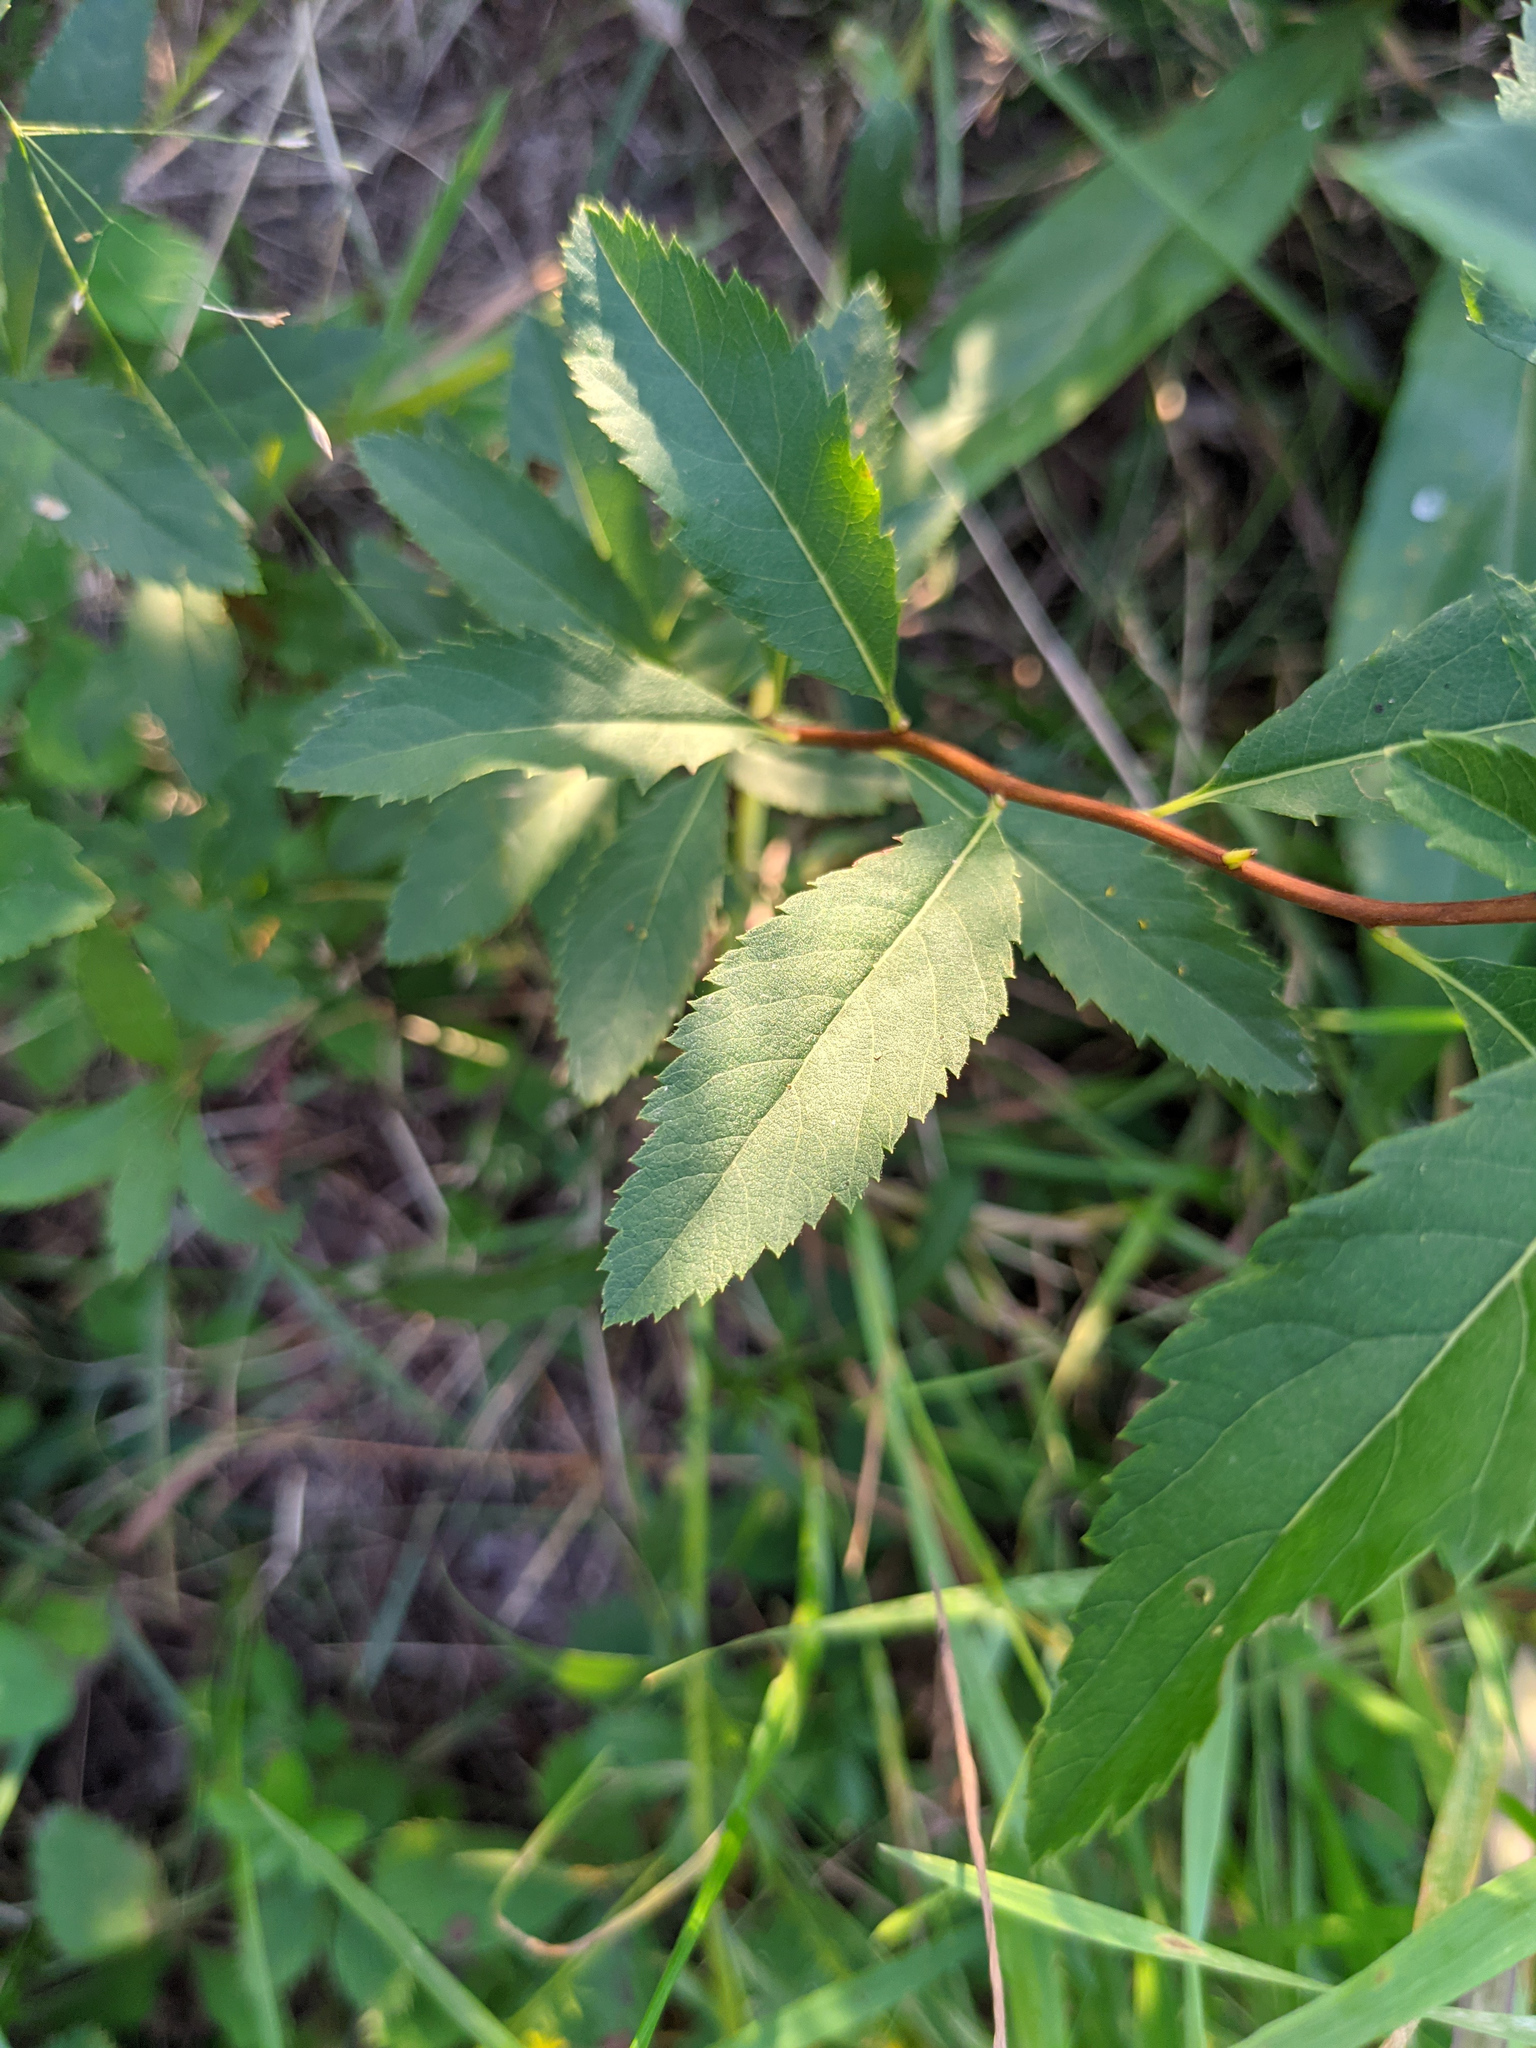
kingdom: Plantae
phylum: Tracheophyta
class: Magnoliopsida
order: Rosales
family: Rosaceae
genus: Spiraea
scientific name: Spiraea alba
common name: Pale bridewort
